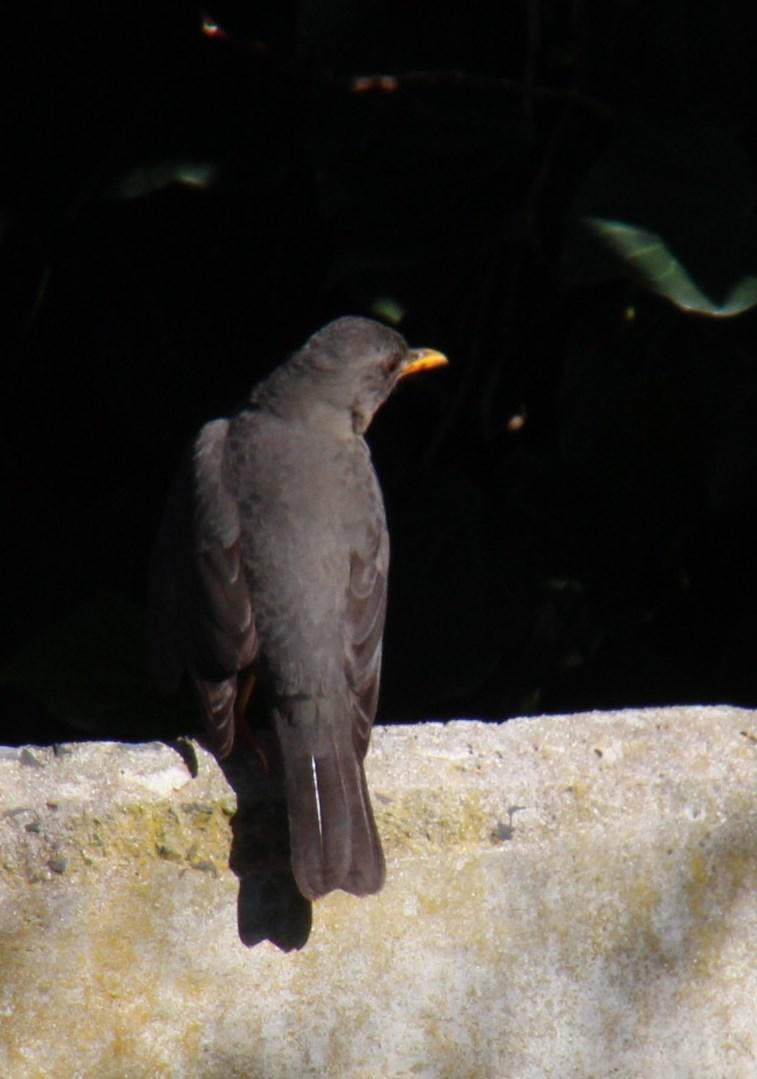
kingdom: Animalia
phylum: Chordata
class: Aves
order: Passeriformes
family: Turdidae
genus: Turdus
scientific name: Turdus olivaceus
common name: Olive thrush
